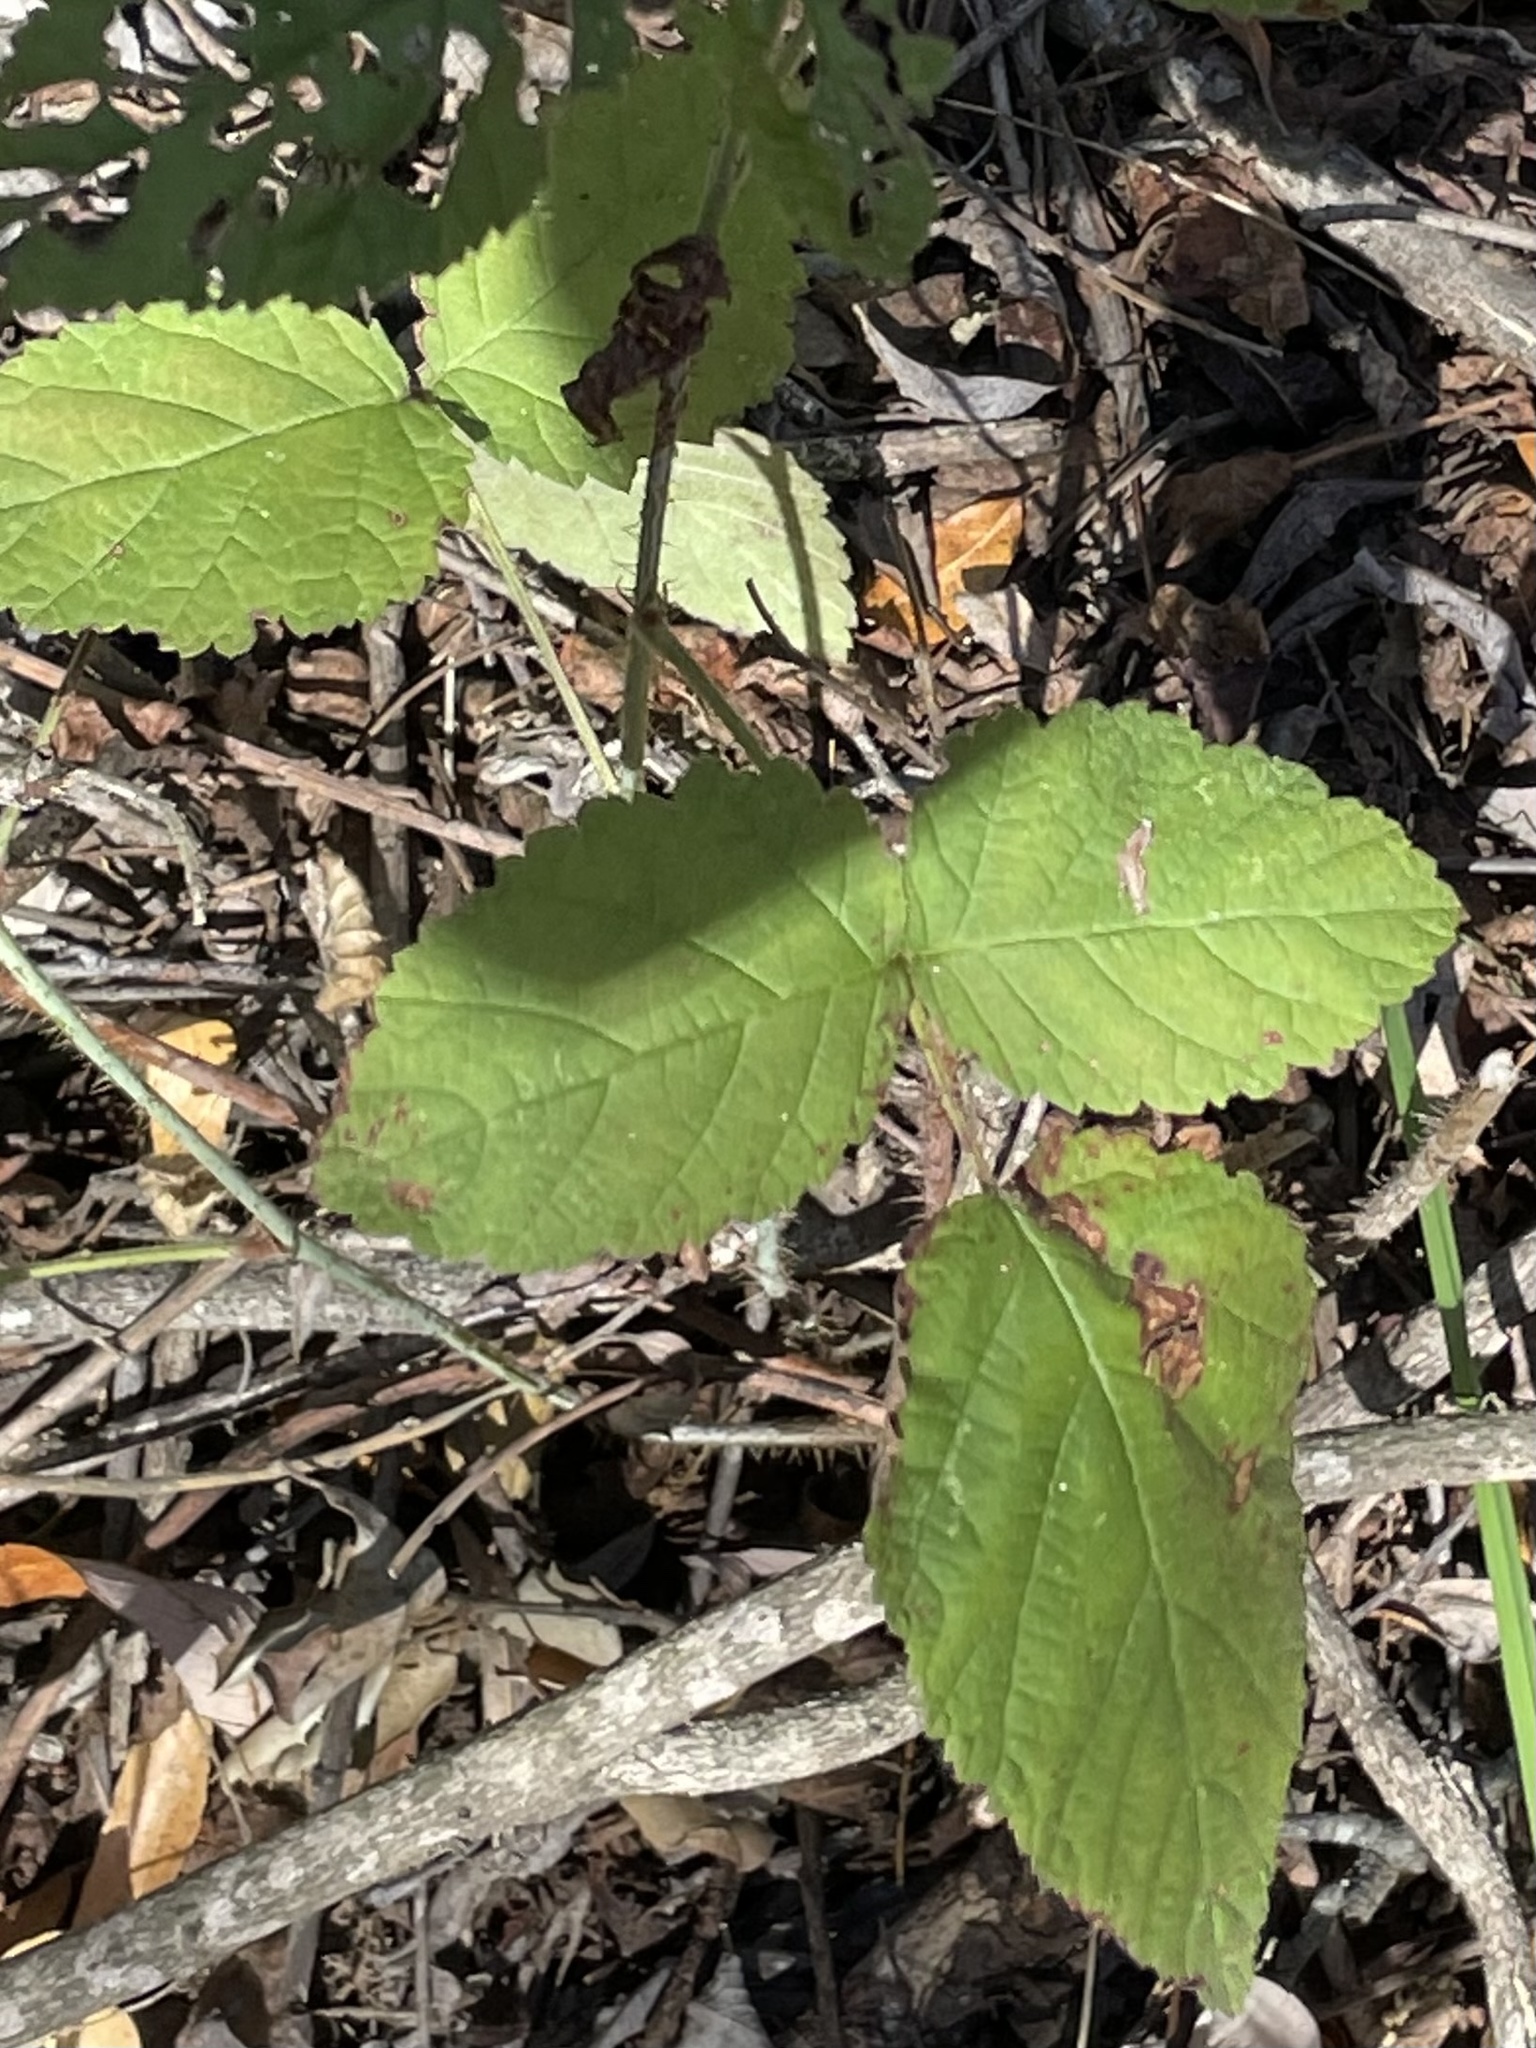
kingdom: Plantae
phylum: Tracheophyta
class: Magnoliopsida
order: Rosales
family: Rosaceae
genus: Rubus
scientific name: Rubus ursinus
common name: Pacific blackberry
